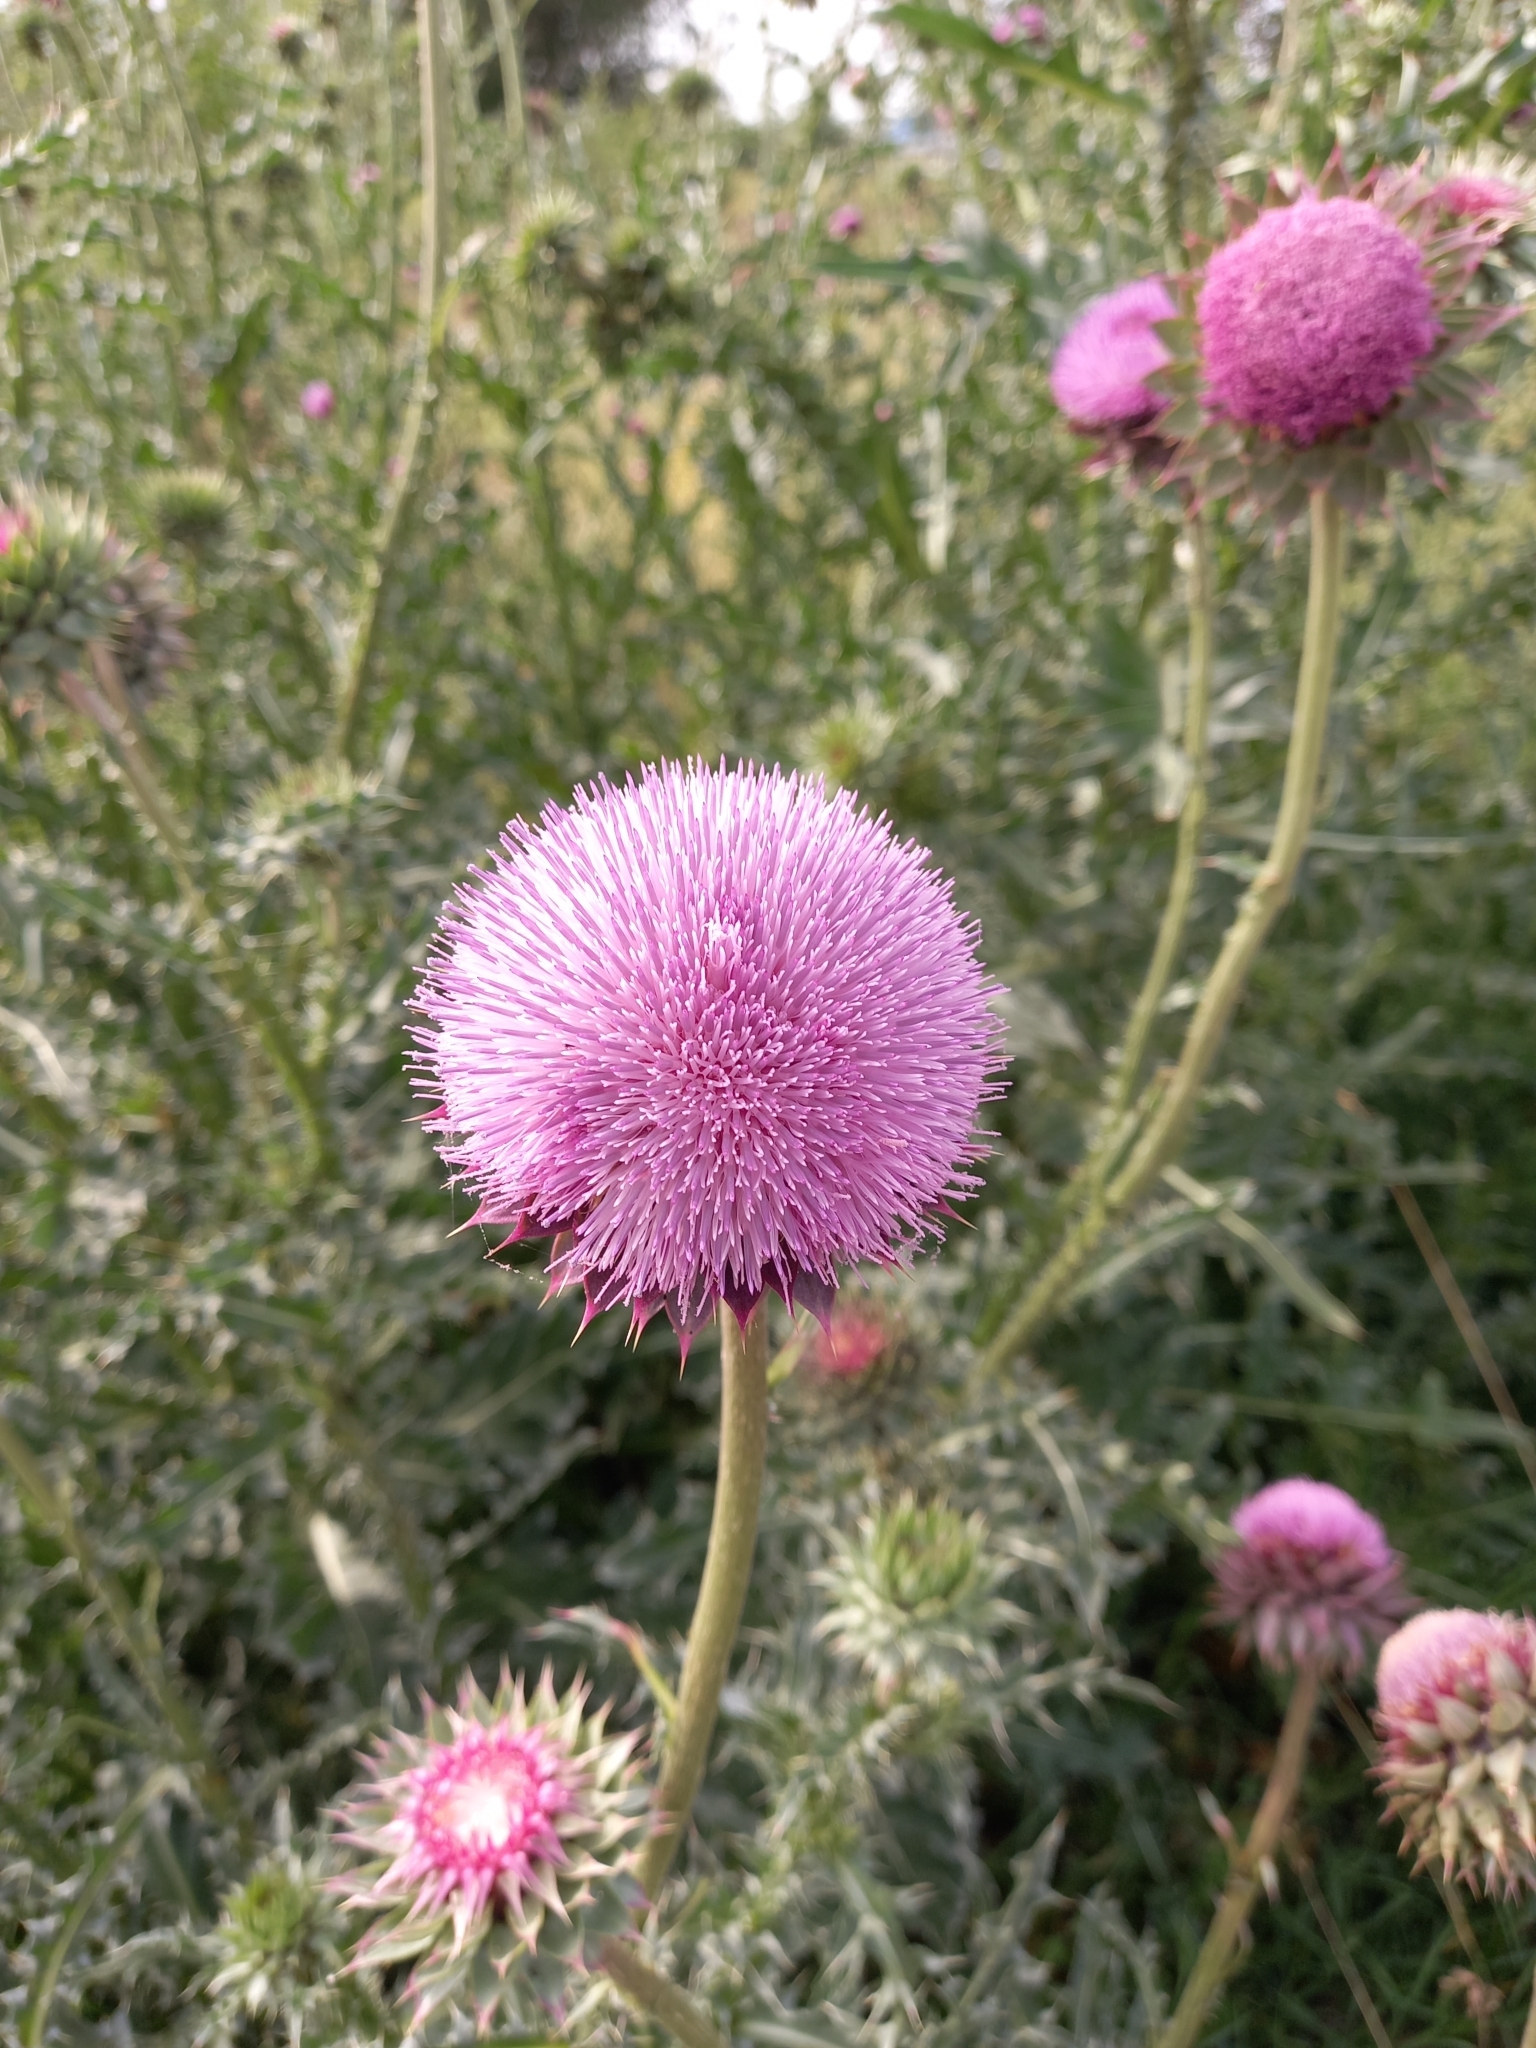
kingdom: Plantae
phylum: Tracheophyta
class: Magnoliopsida
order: Asterales
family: Asteraceae
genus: Carduus
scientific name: Carduus nutans
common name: Musk thistle
